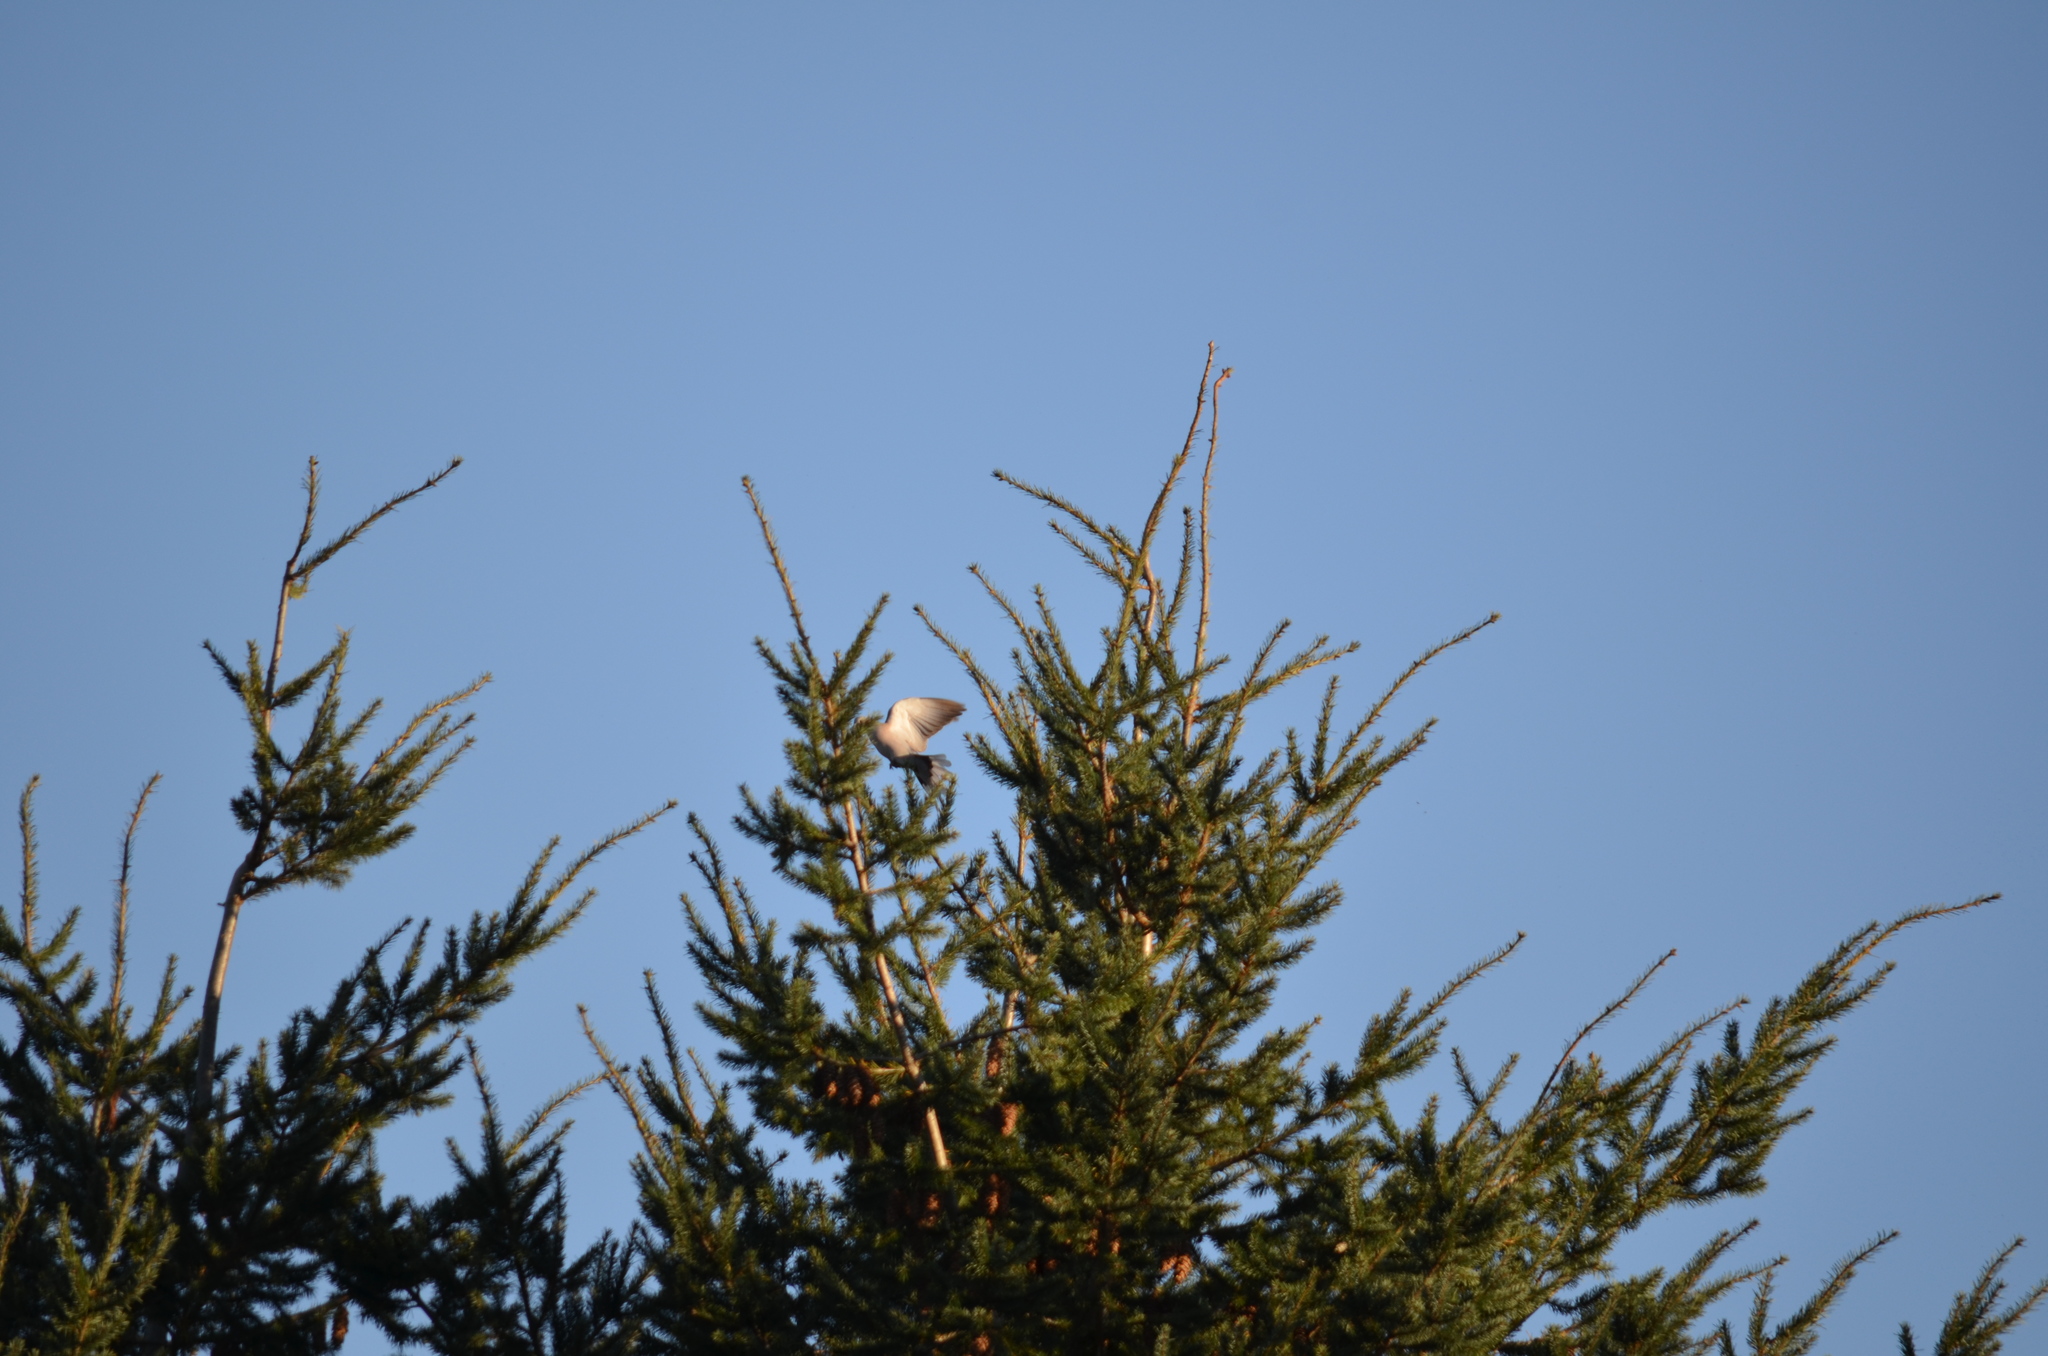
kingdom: Animalia
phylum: Chordata
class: Aves
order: Columbiformes
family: Columbidae
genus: Patagioenas
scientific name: Patagioenas fasciata
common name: Band-tailed pigeon
